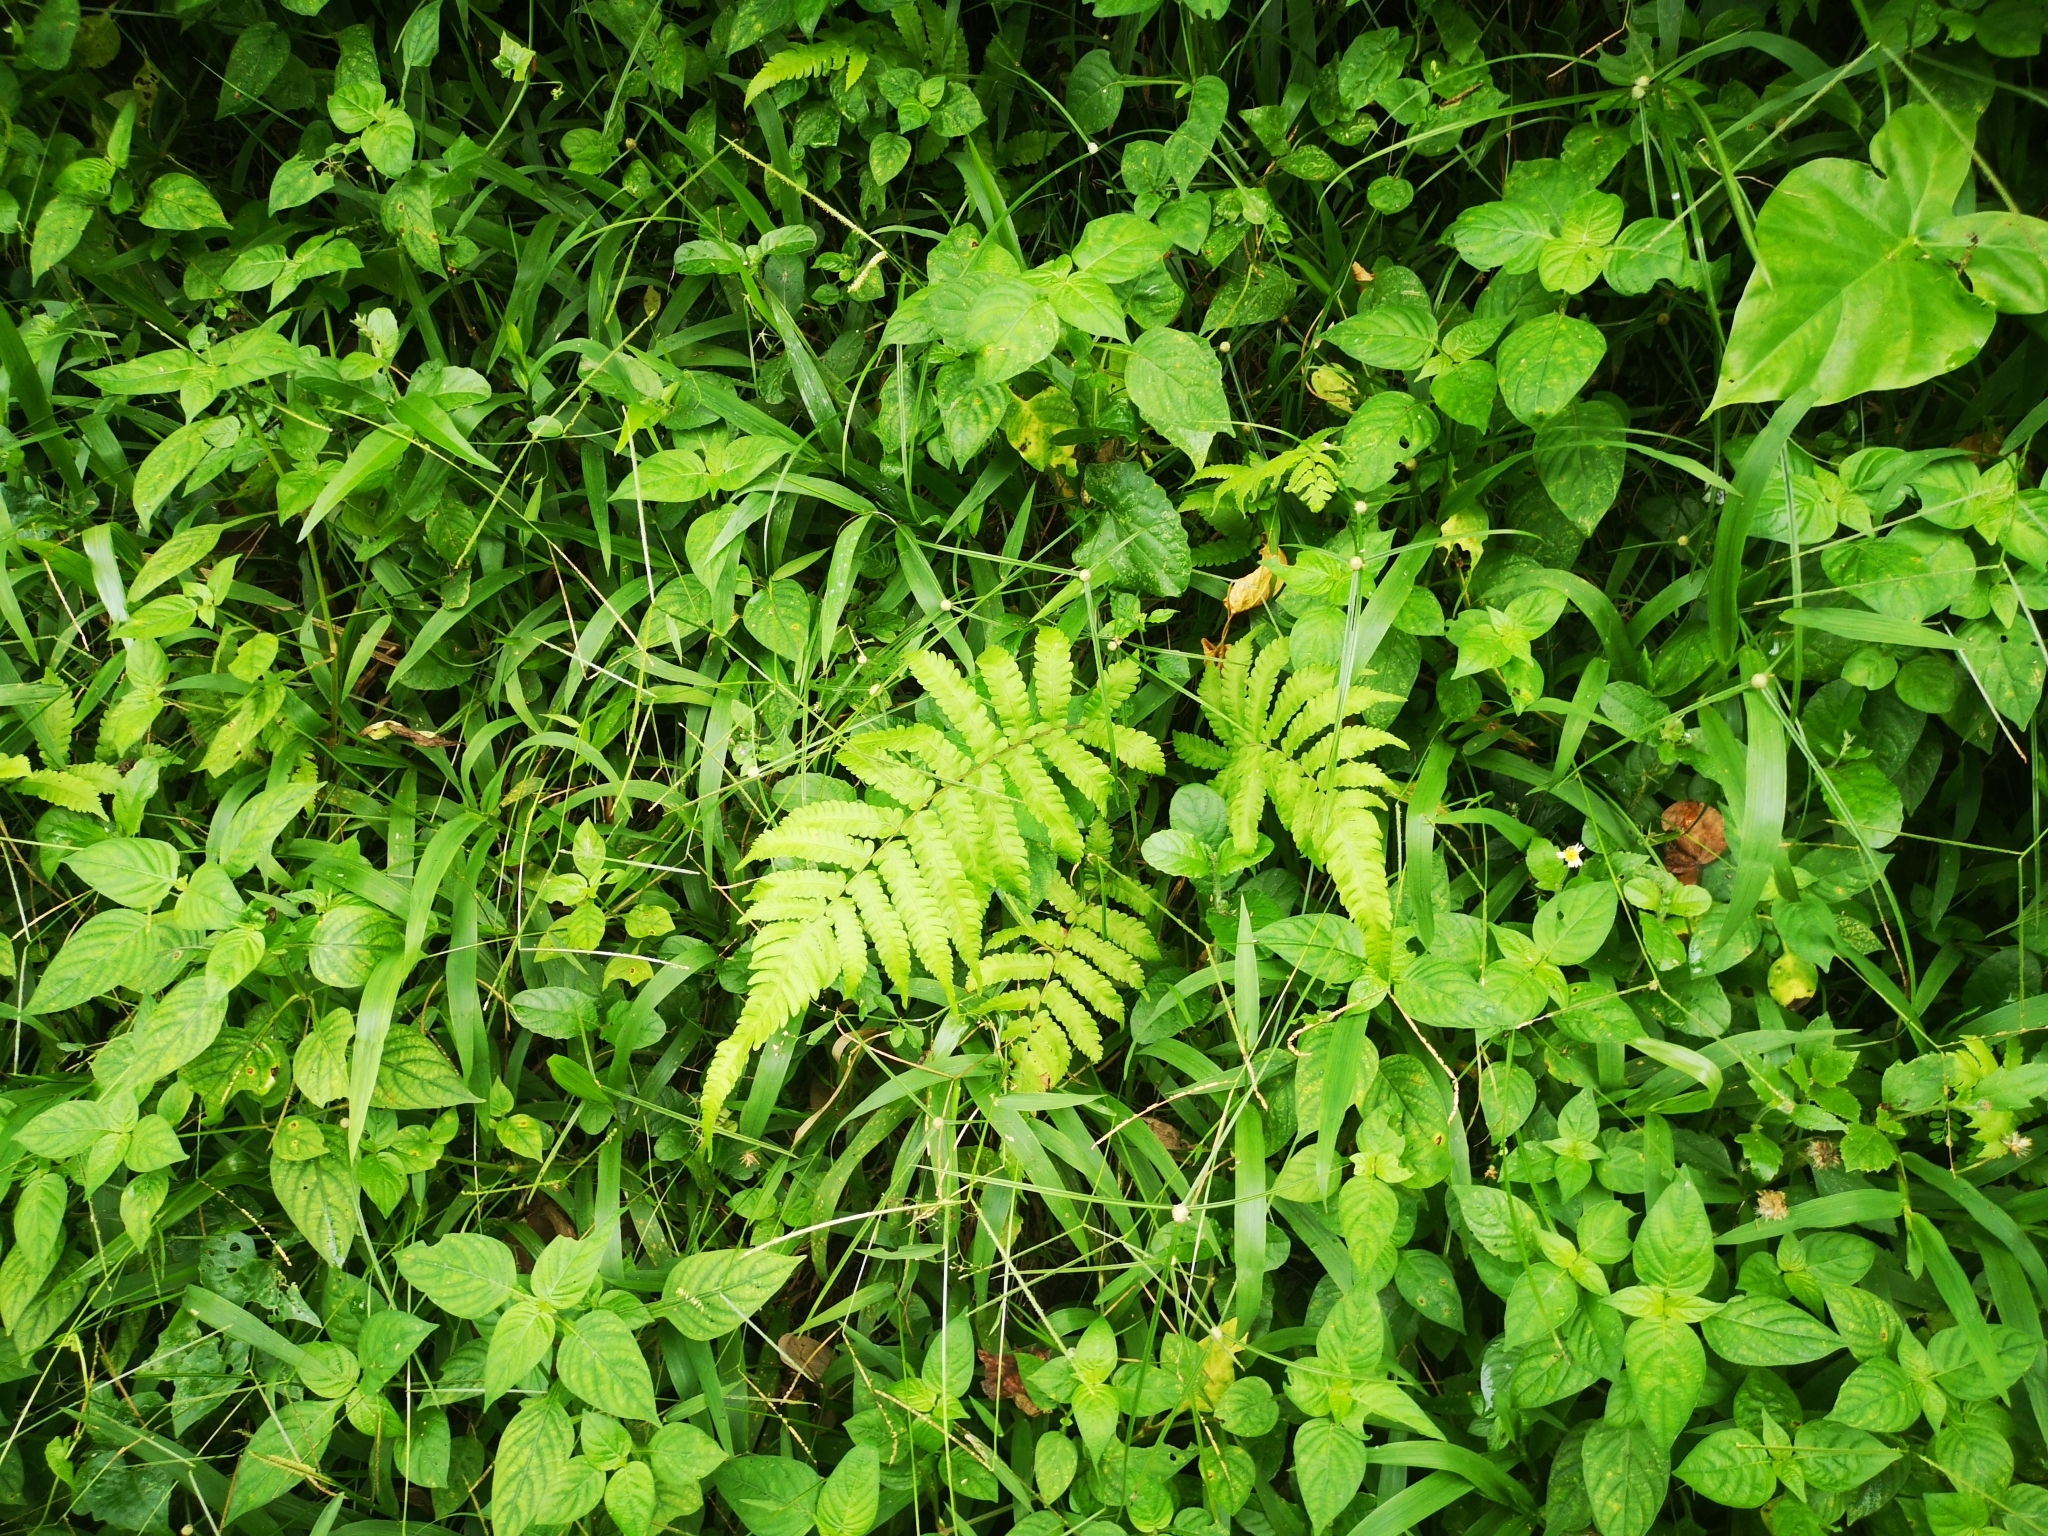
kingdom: Plantae
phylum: Tracheophyta
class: Polypodiopsida
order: Polypodiales
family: Thelypteridaceae
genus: Christella
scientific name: Christella arida
